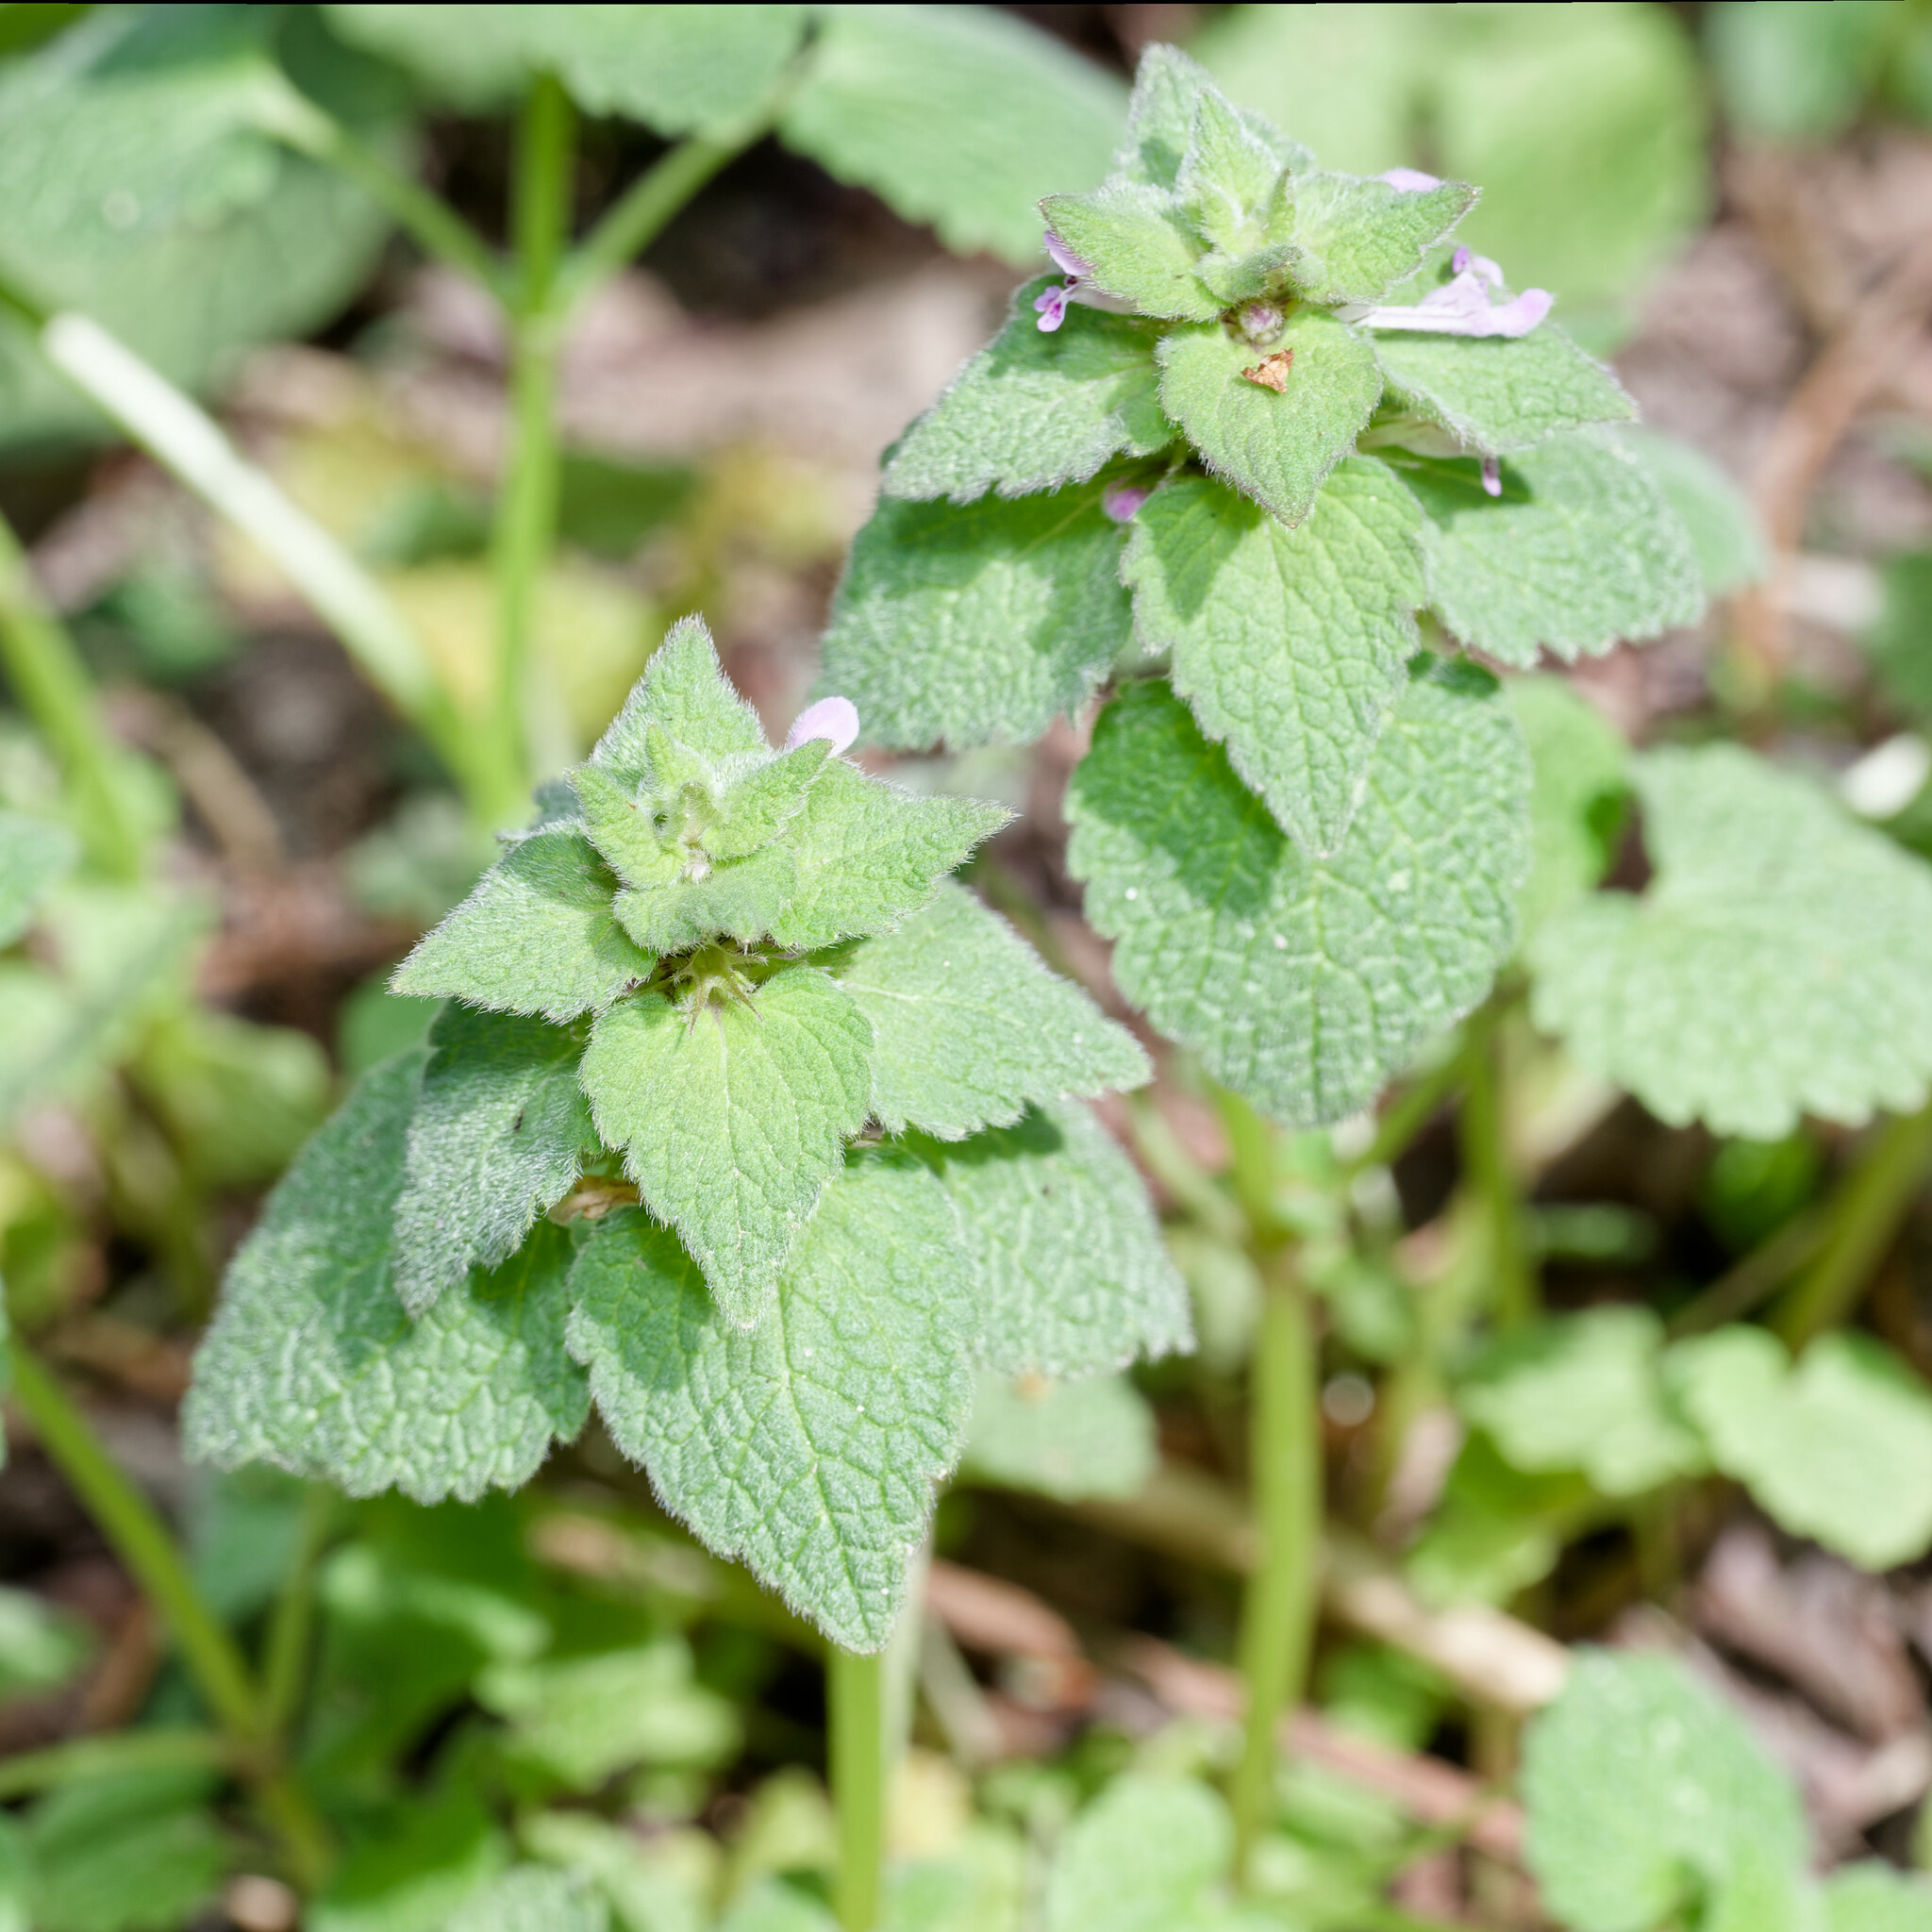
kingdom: Plantae
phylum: Tracheophyta
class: Magnoliopsida
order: Lamiales
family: Lamiaceae
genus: Lamium
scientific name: Lamium purpureum
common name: Red dead-nettle
